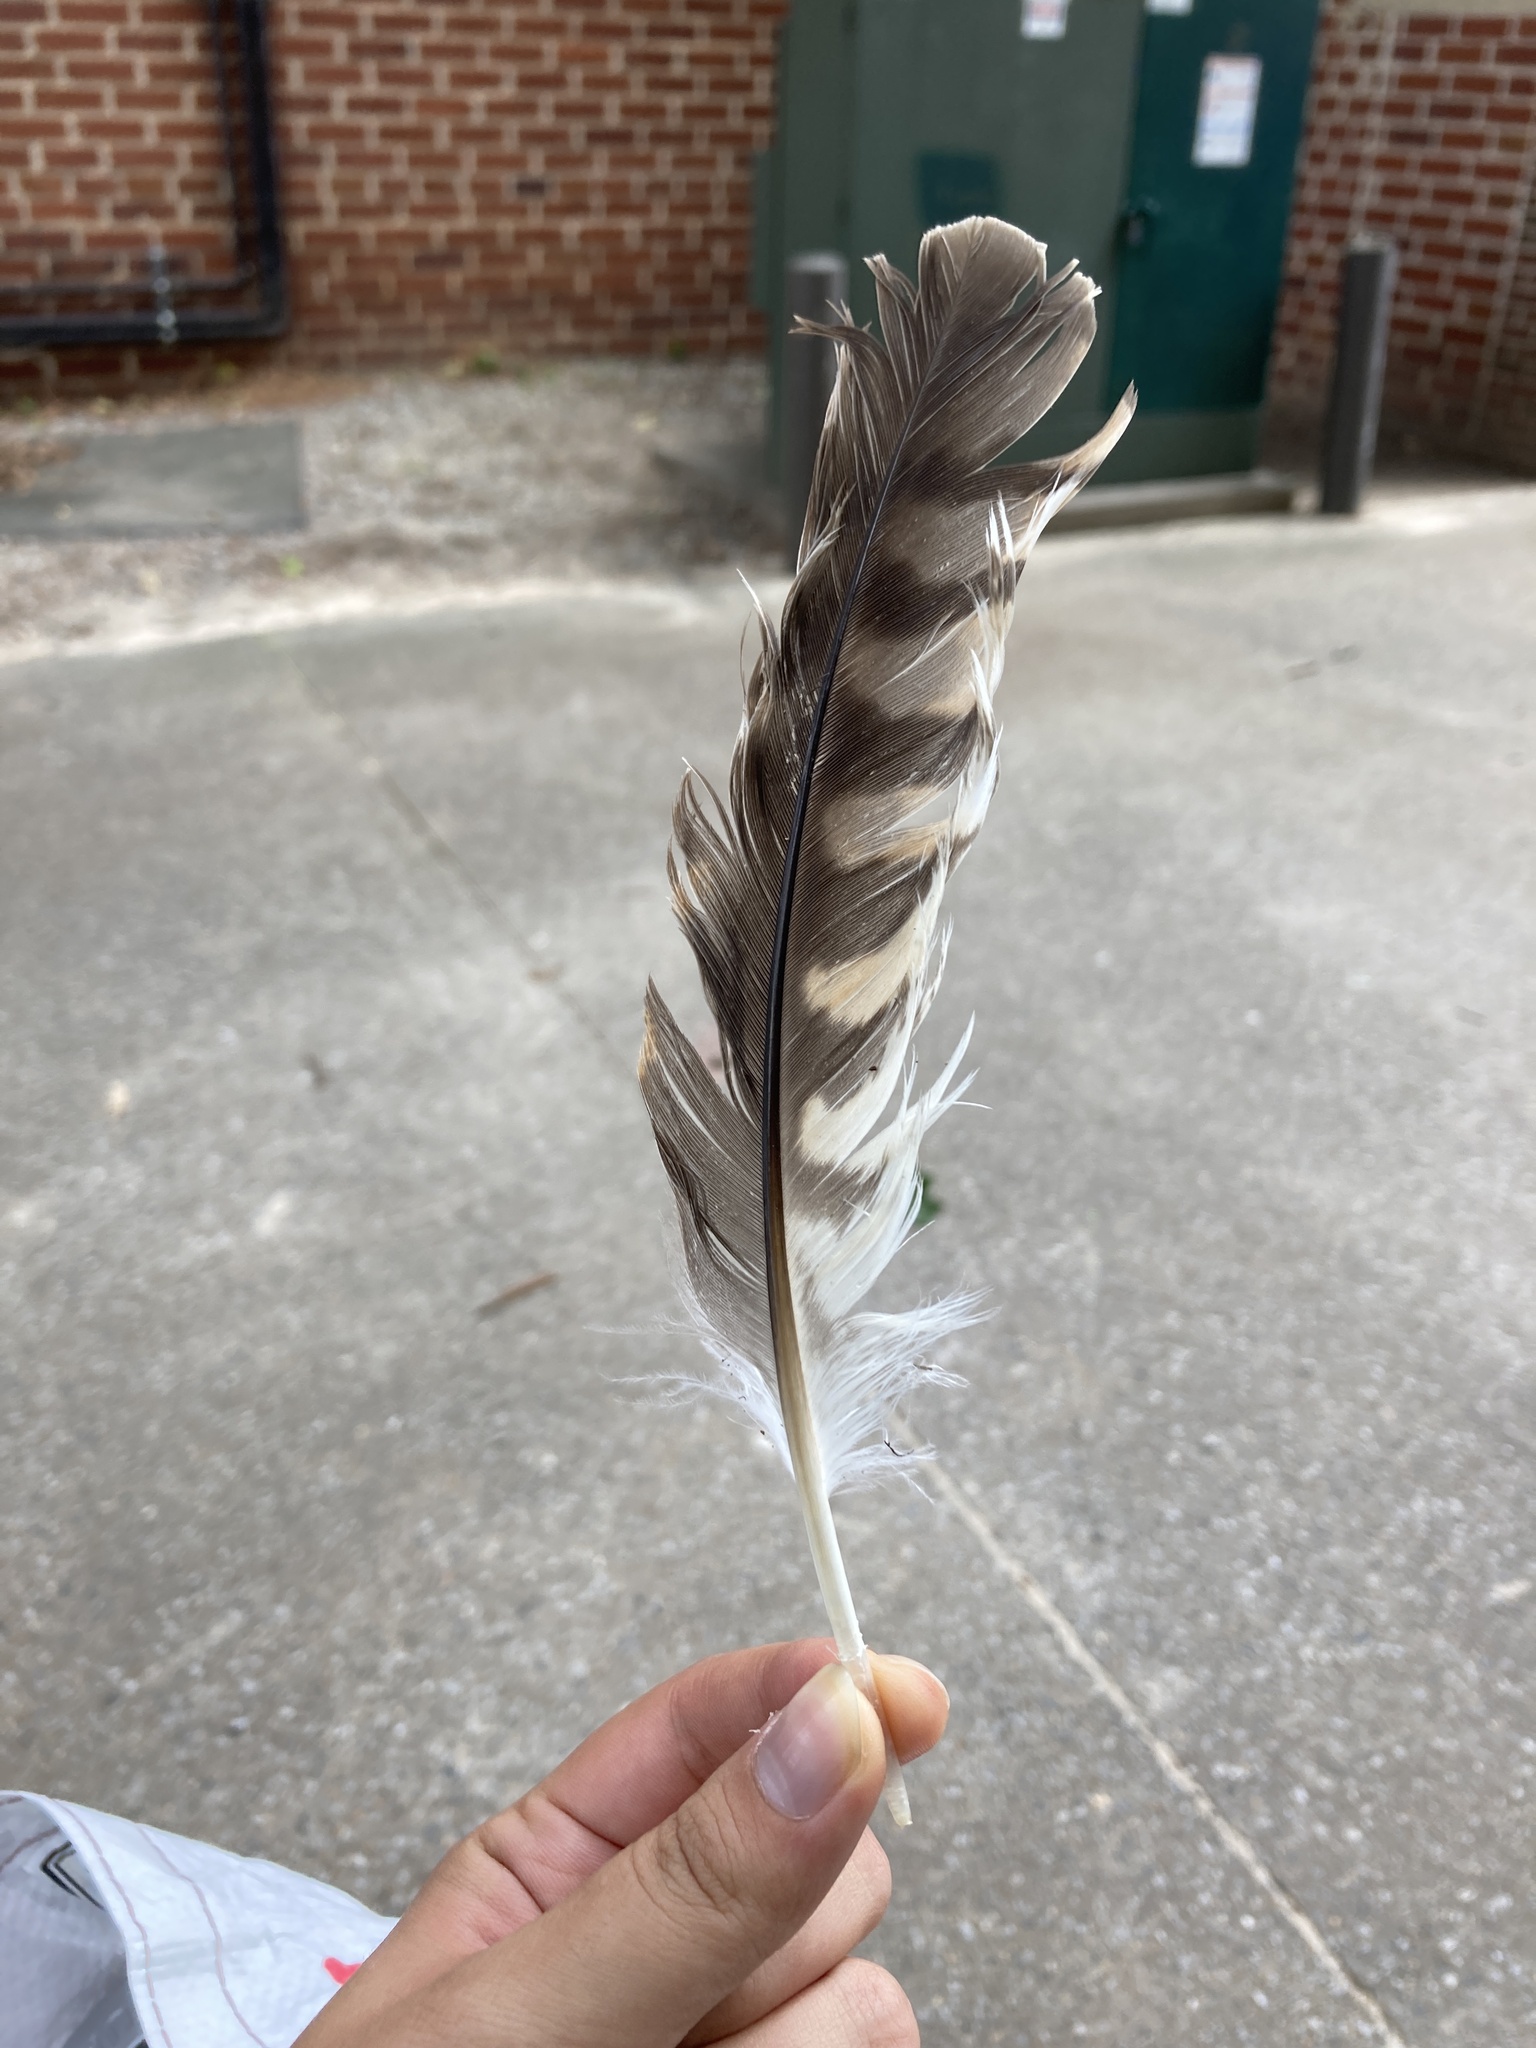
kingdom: Animalia
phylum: Chordata
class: Aves
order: Accipitriformes
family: Accipitridae
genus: Buteo
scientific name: Buteo lineatus
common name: Red-shouldered hawk
